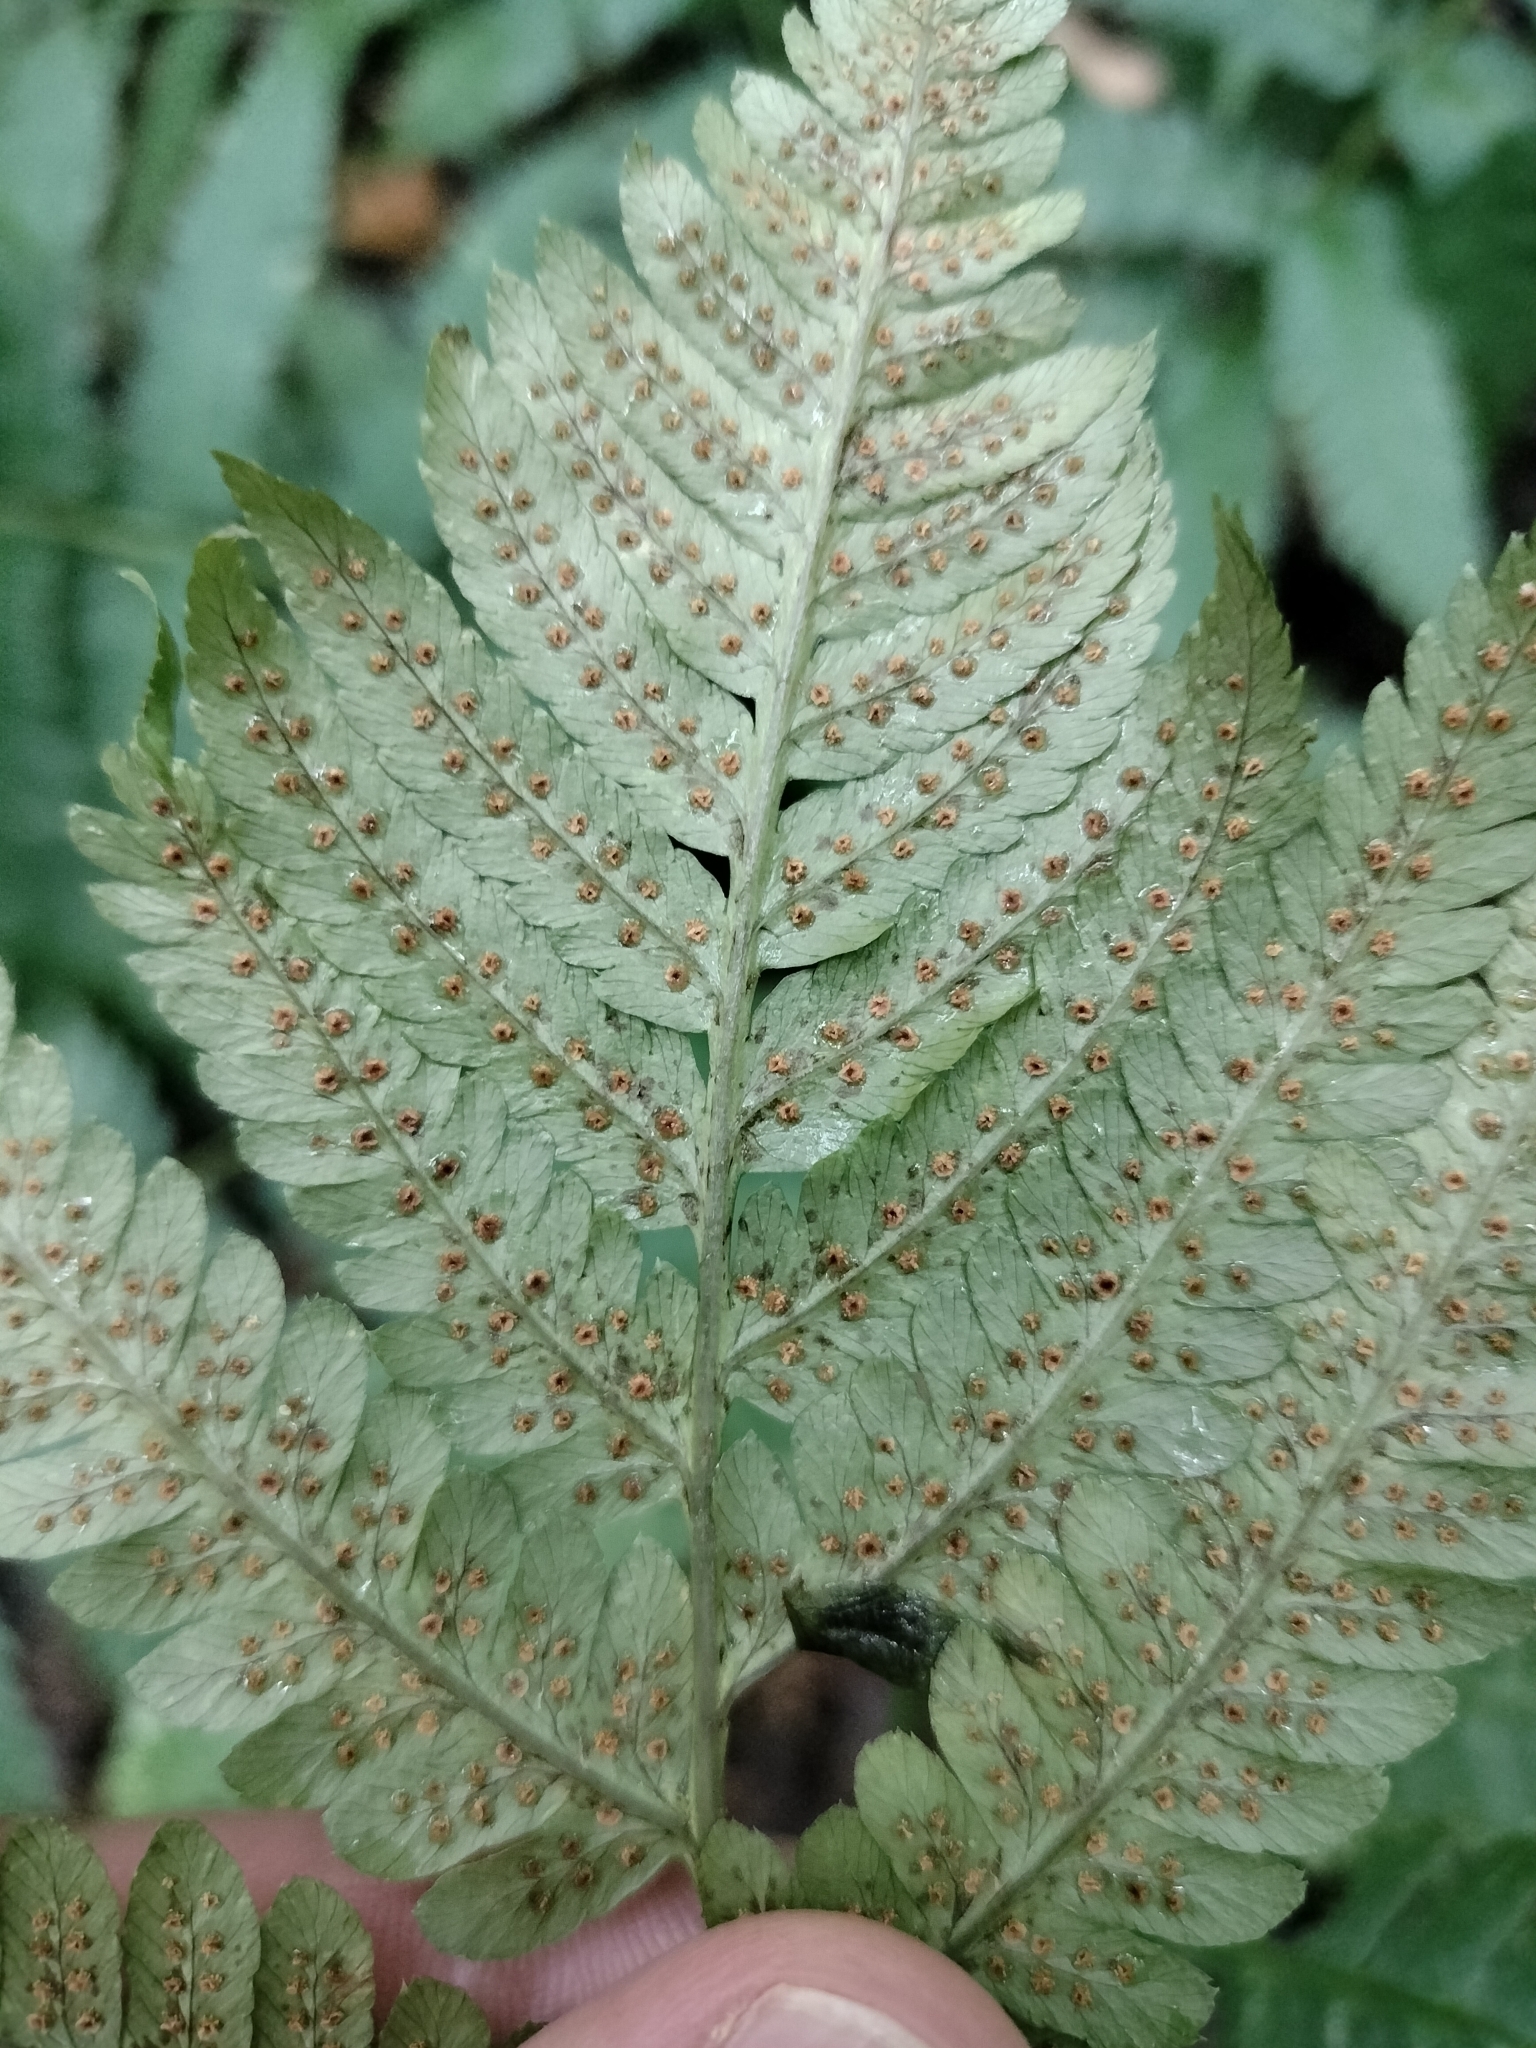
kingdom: Plantae
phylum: Tracheophyta
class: Polypodiopsida
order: Polypodiales
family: Dryopteridaceae
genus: Dryopteris
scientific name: Dryopteris goldieana
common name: Goldie's fern
